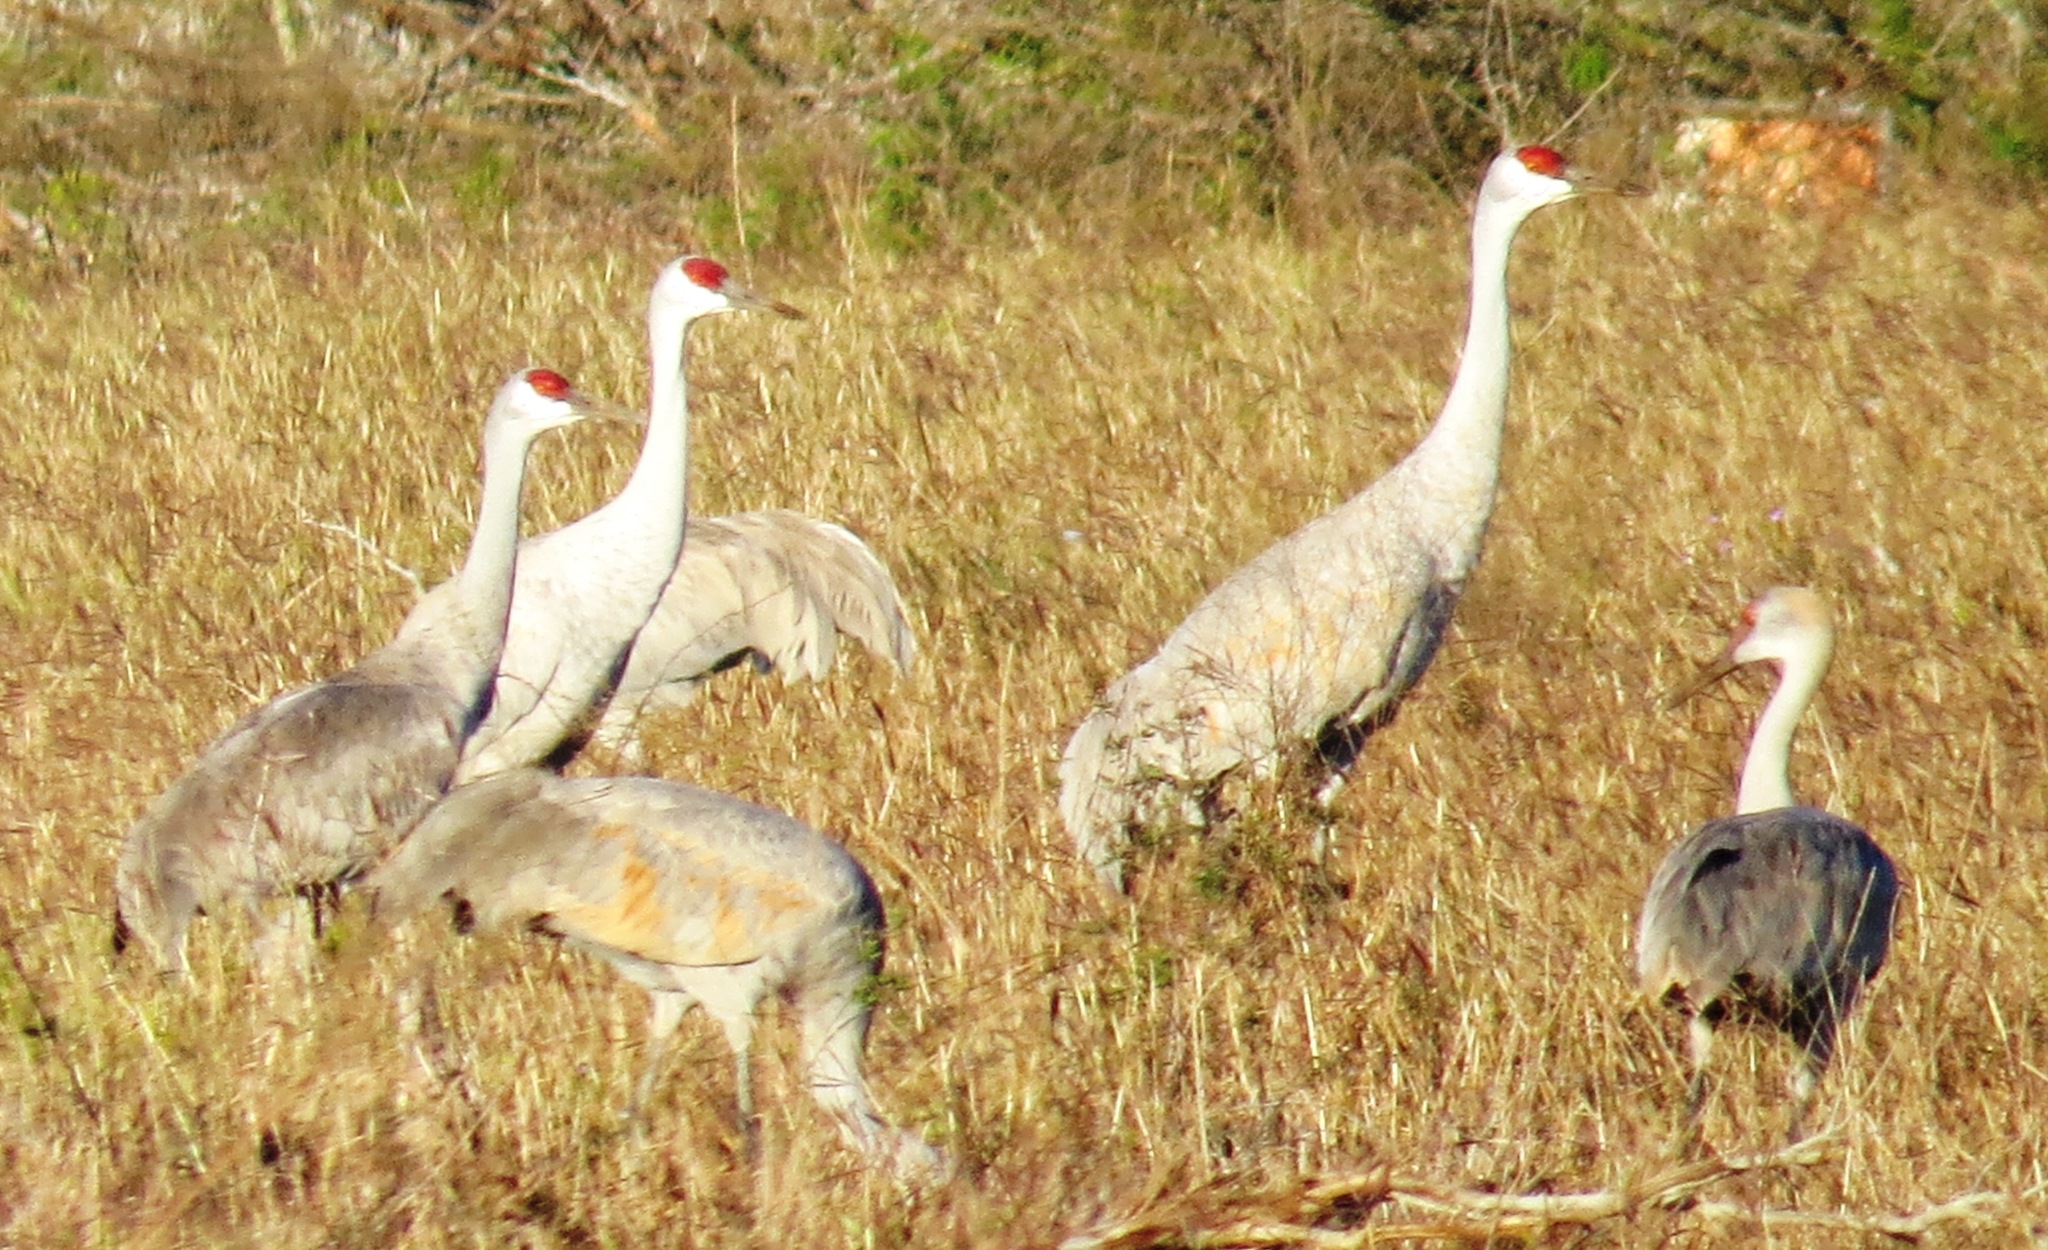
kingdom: Animalia
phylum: Chordata
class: Aves
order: Gruiformes
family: Gruidae
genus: Grus
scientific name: Grus canadensis
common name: Sandhill crane
